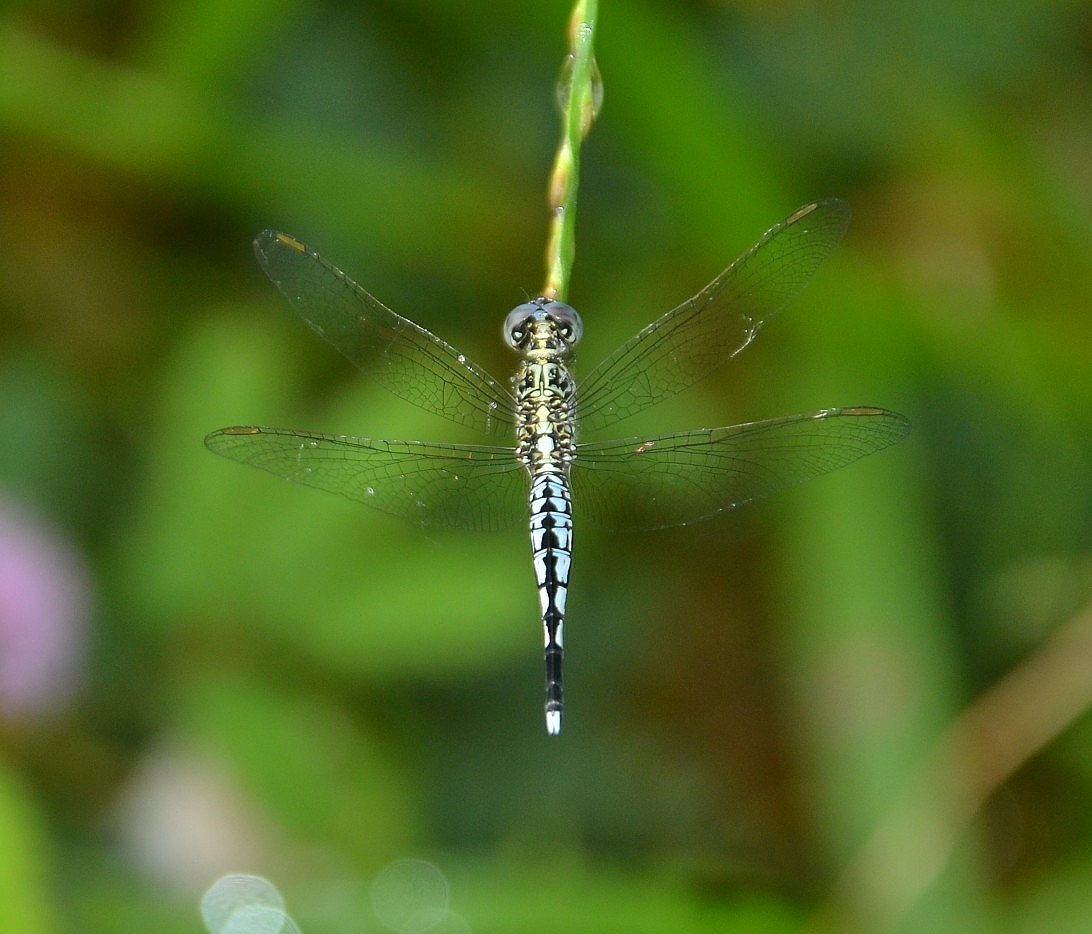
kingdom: Animalia
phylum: Arthropoda
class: Insecta
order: Odonata
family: Libellulidae
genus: Acisoma
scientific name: Acisoma panorpoides
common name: Asian pintail
